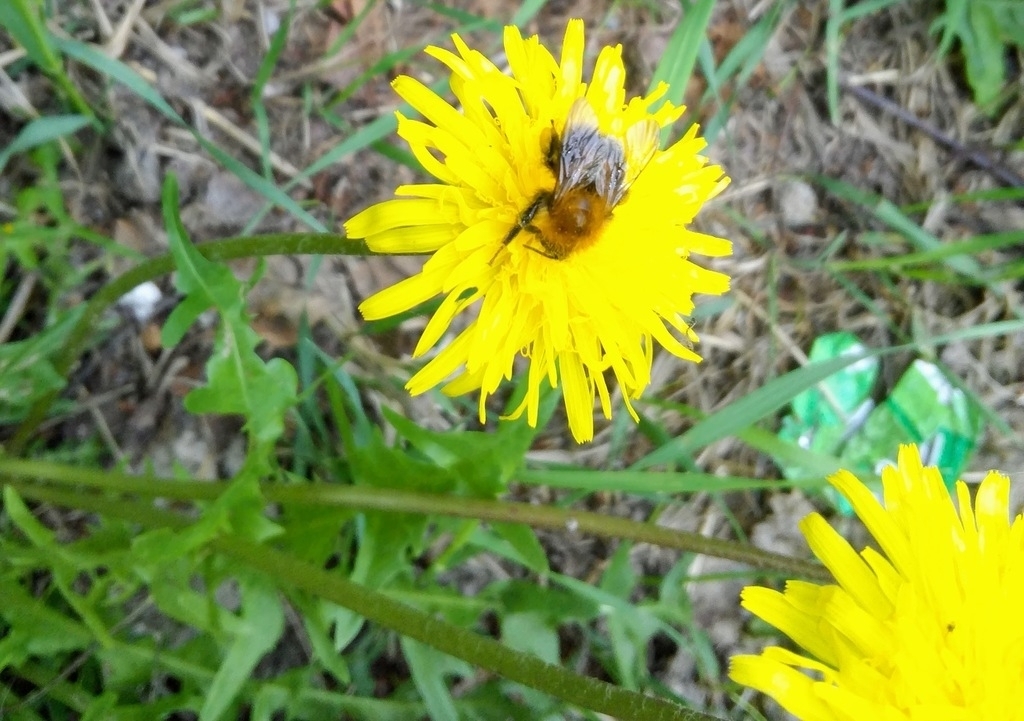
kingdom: Animalia
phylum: Arthropoda
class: Insecta
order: Hymenoptera
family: Apidae
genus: Bombus
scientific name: Bombus hypnorum
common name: New garden bumblebee
